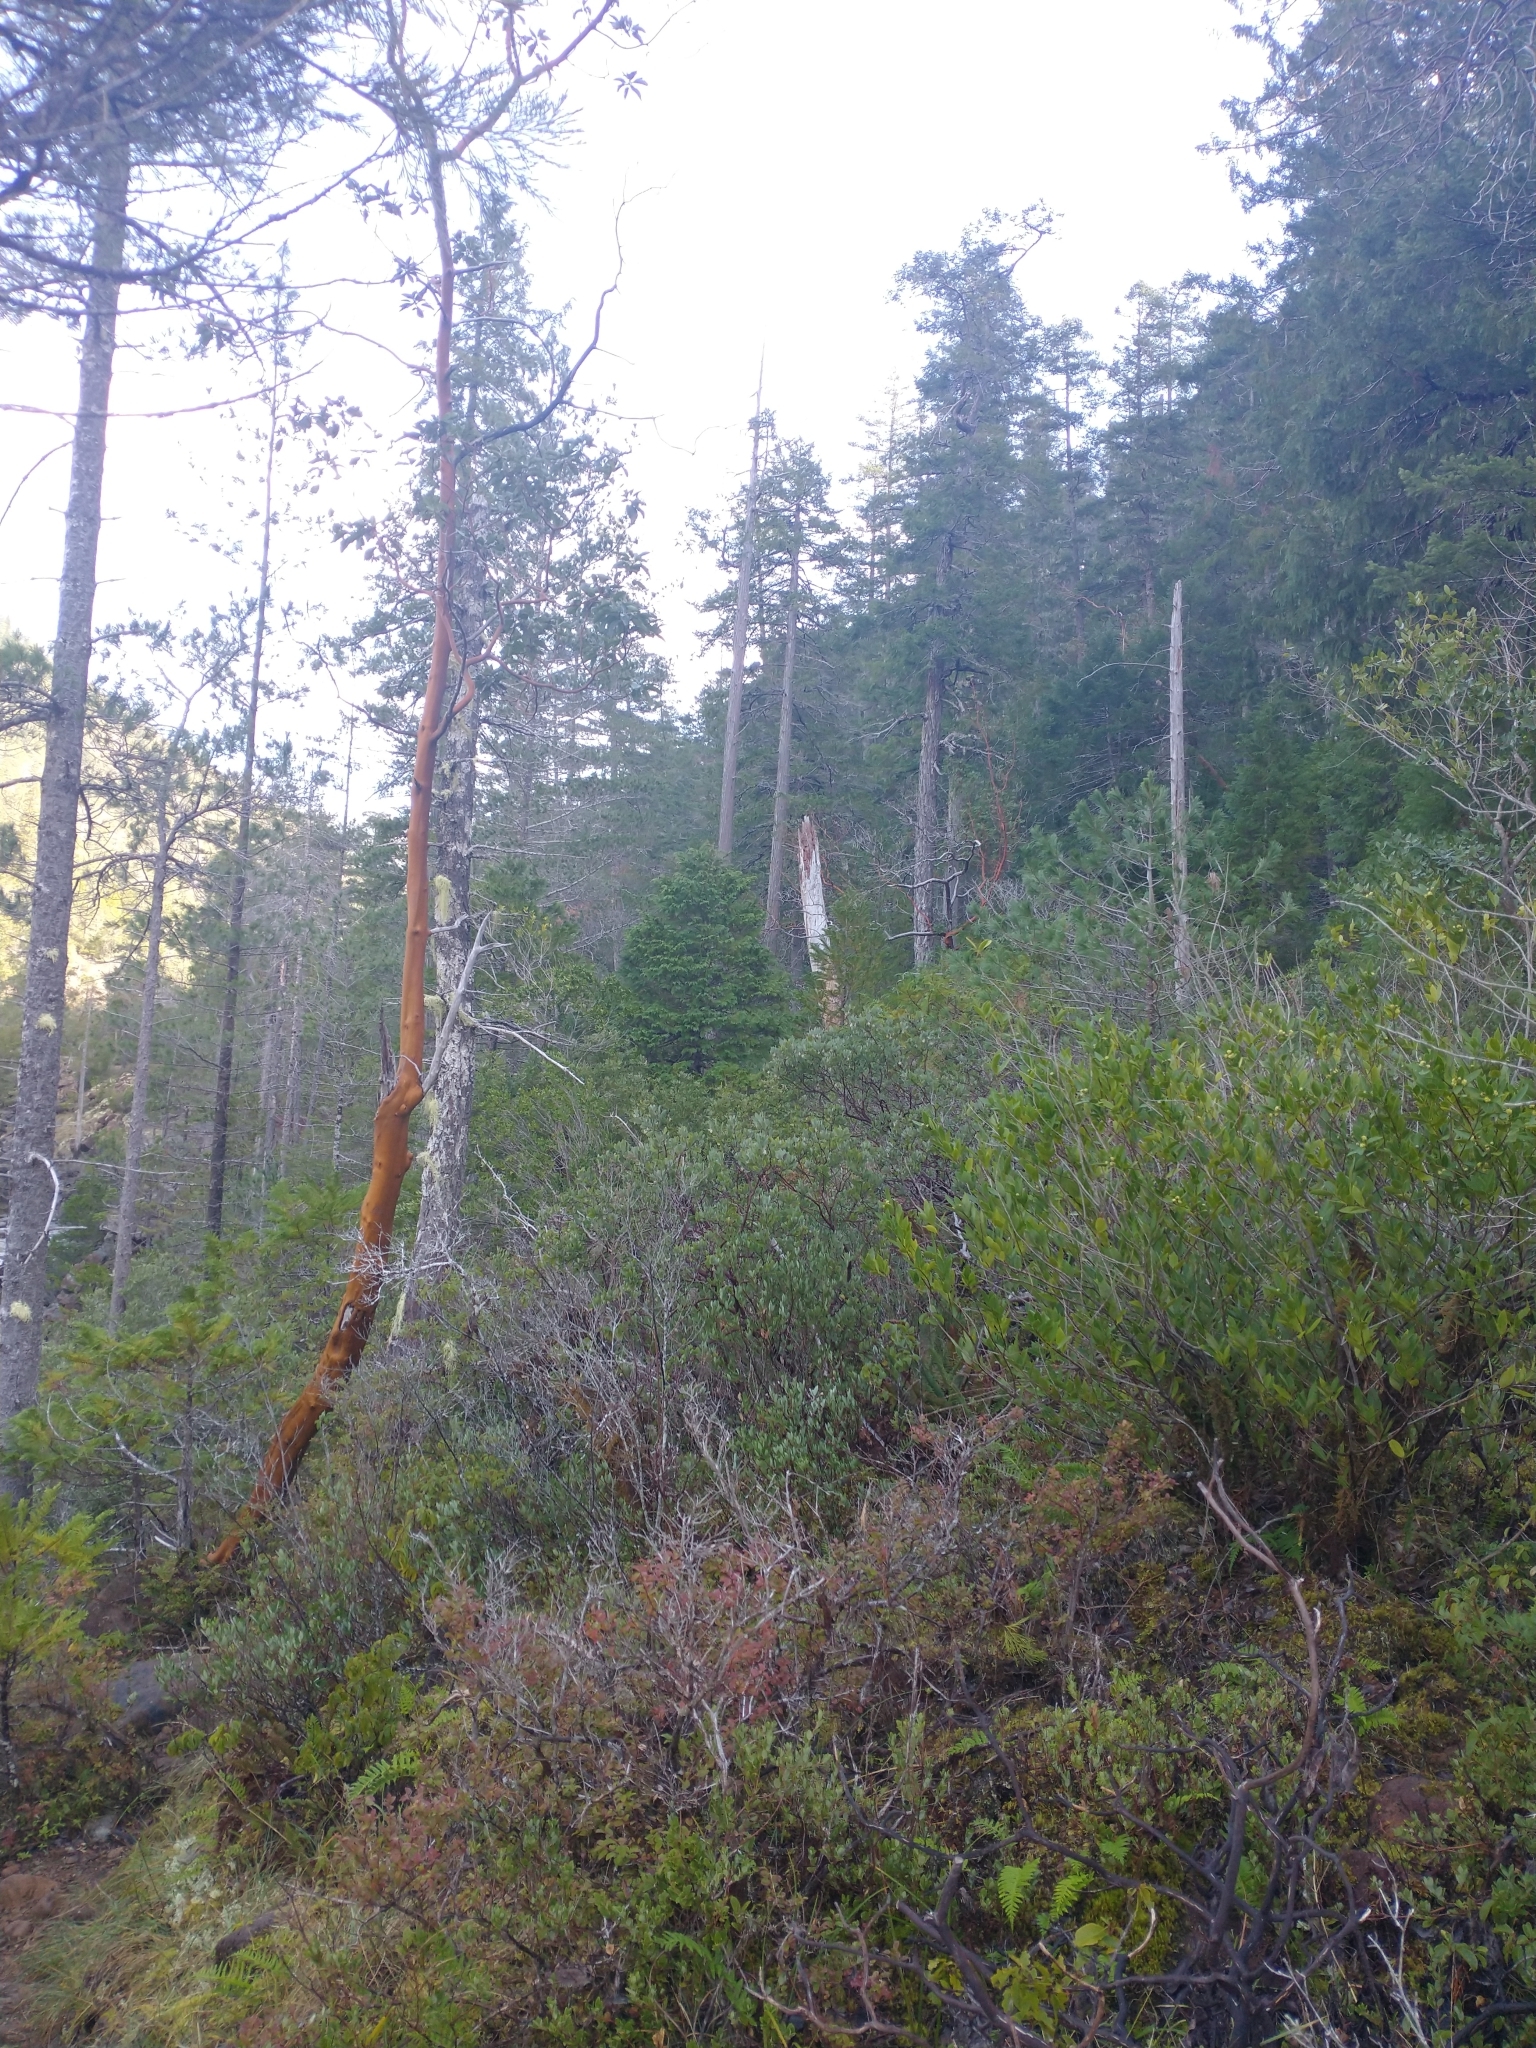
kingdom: Plantae
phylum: Tracheophyta
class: Pinopsida
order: Pinales
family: Cupressaceae
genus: Chamaecyparis
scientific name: Chamaecyparis lawsoniana
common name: Lawson's cypress
